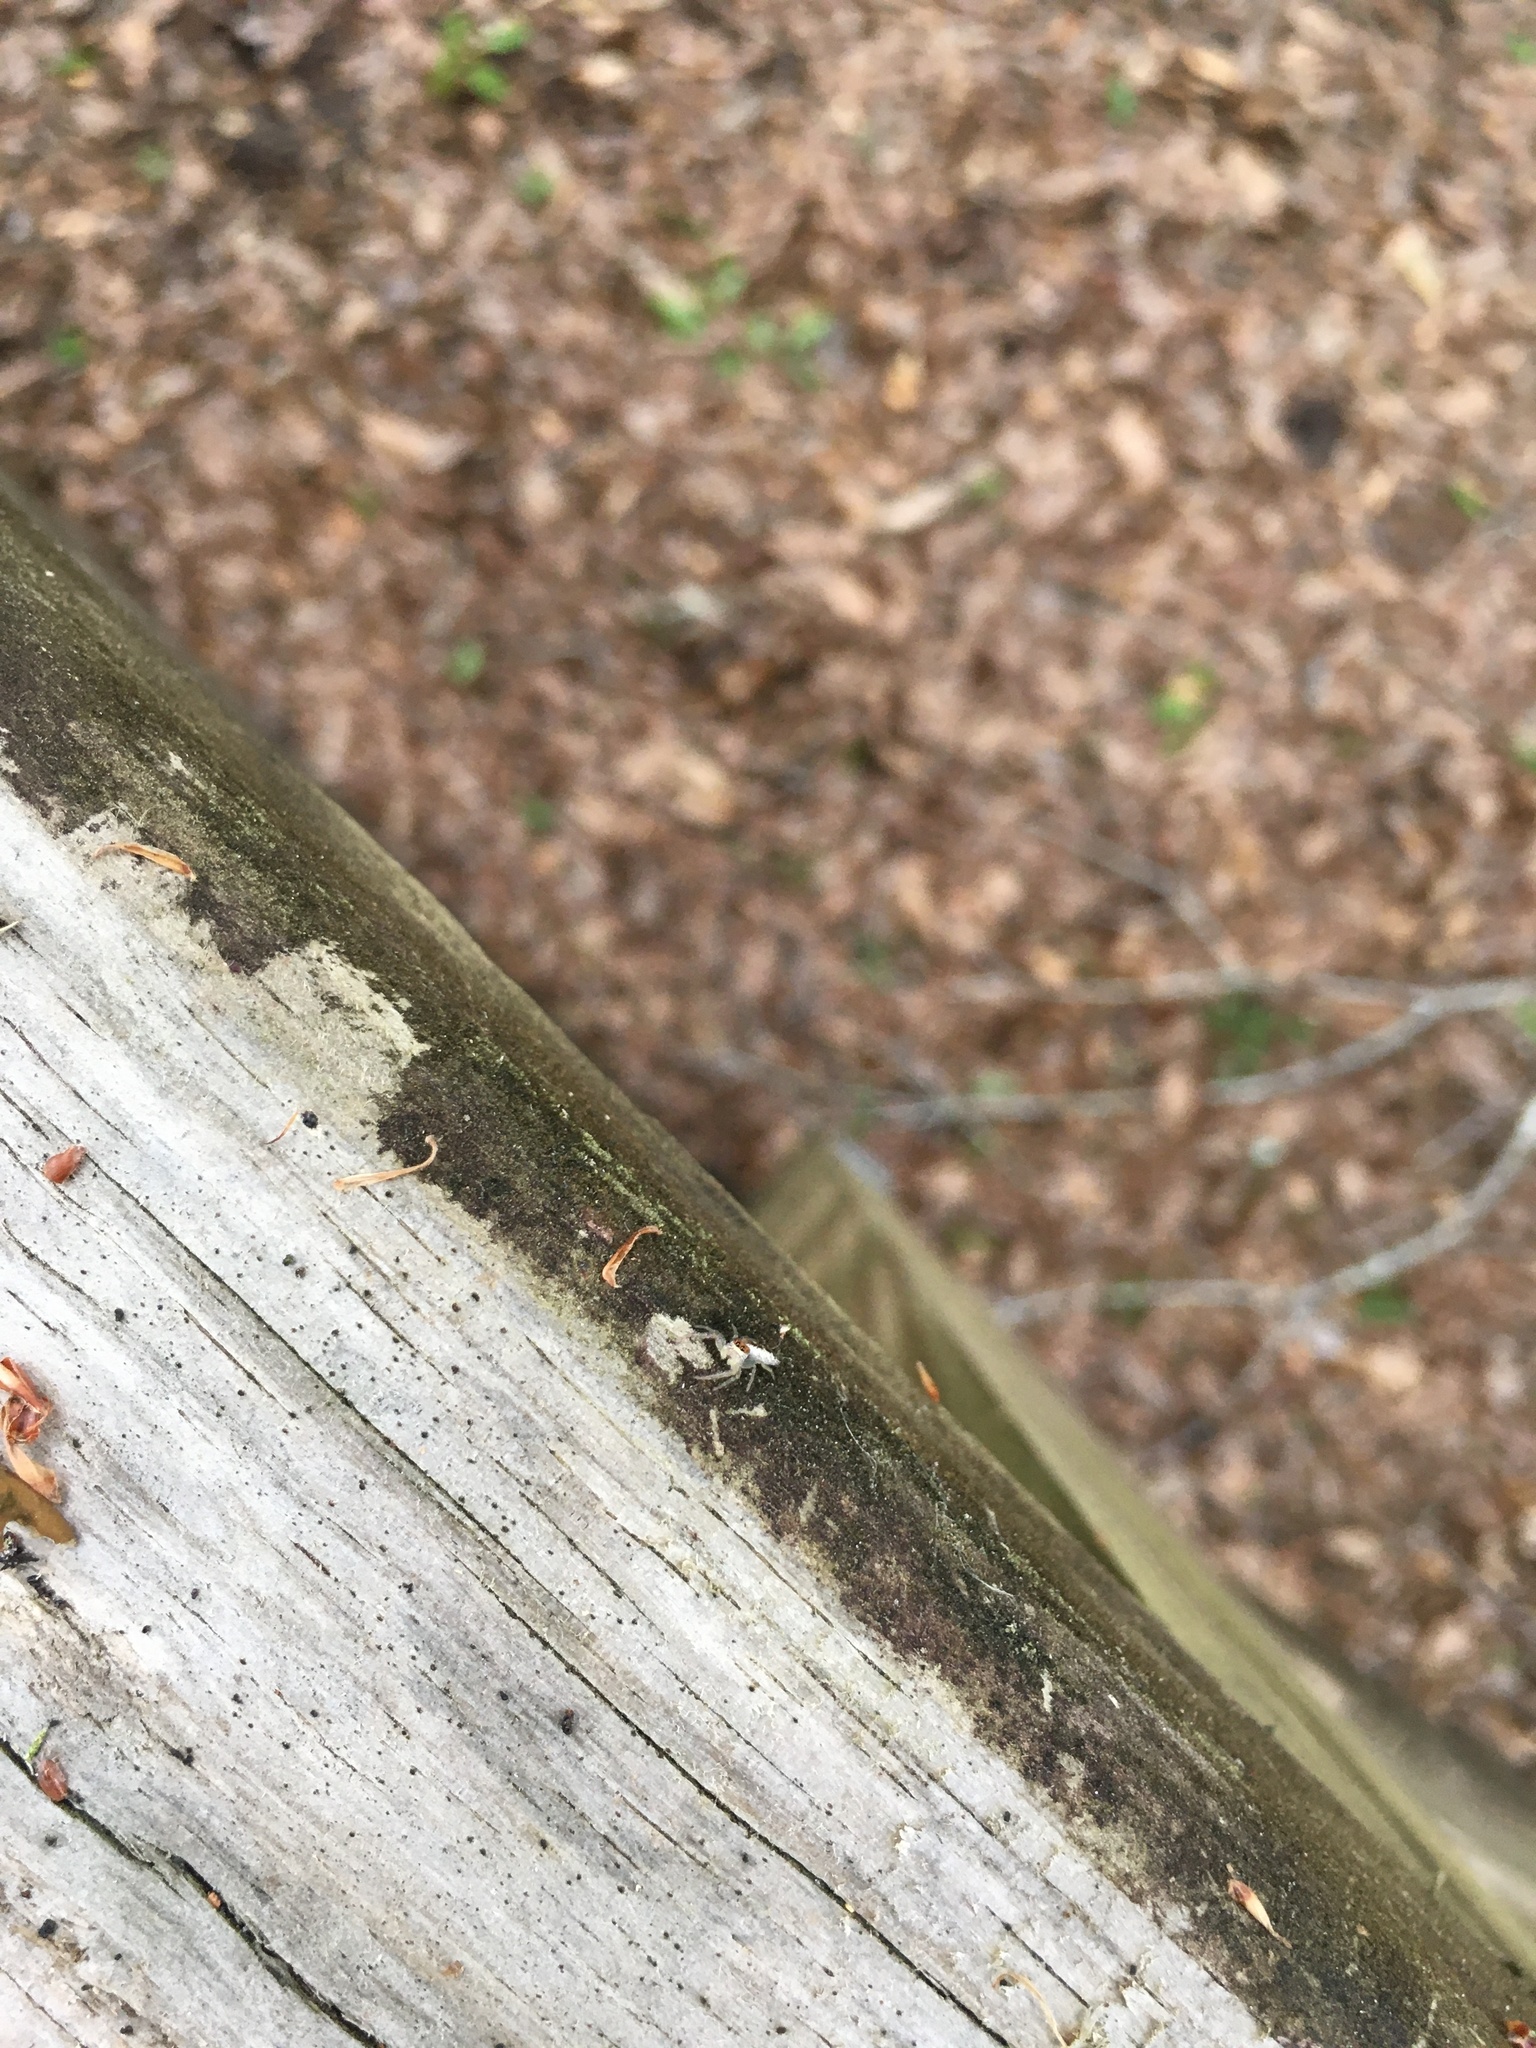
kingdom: Animalia
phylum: Arthropoda
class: Arachnida
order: Araneae
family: Salticidae
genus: Hentzia
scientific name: Hentzia mitrata
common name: White-jawed jumping spider
